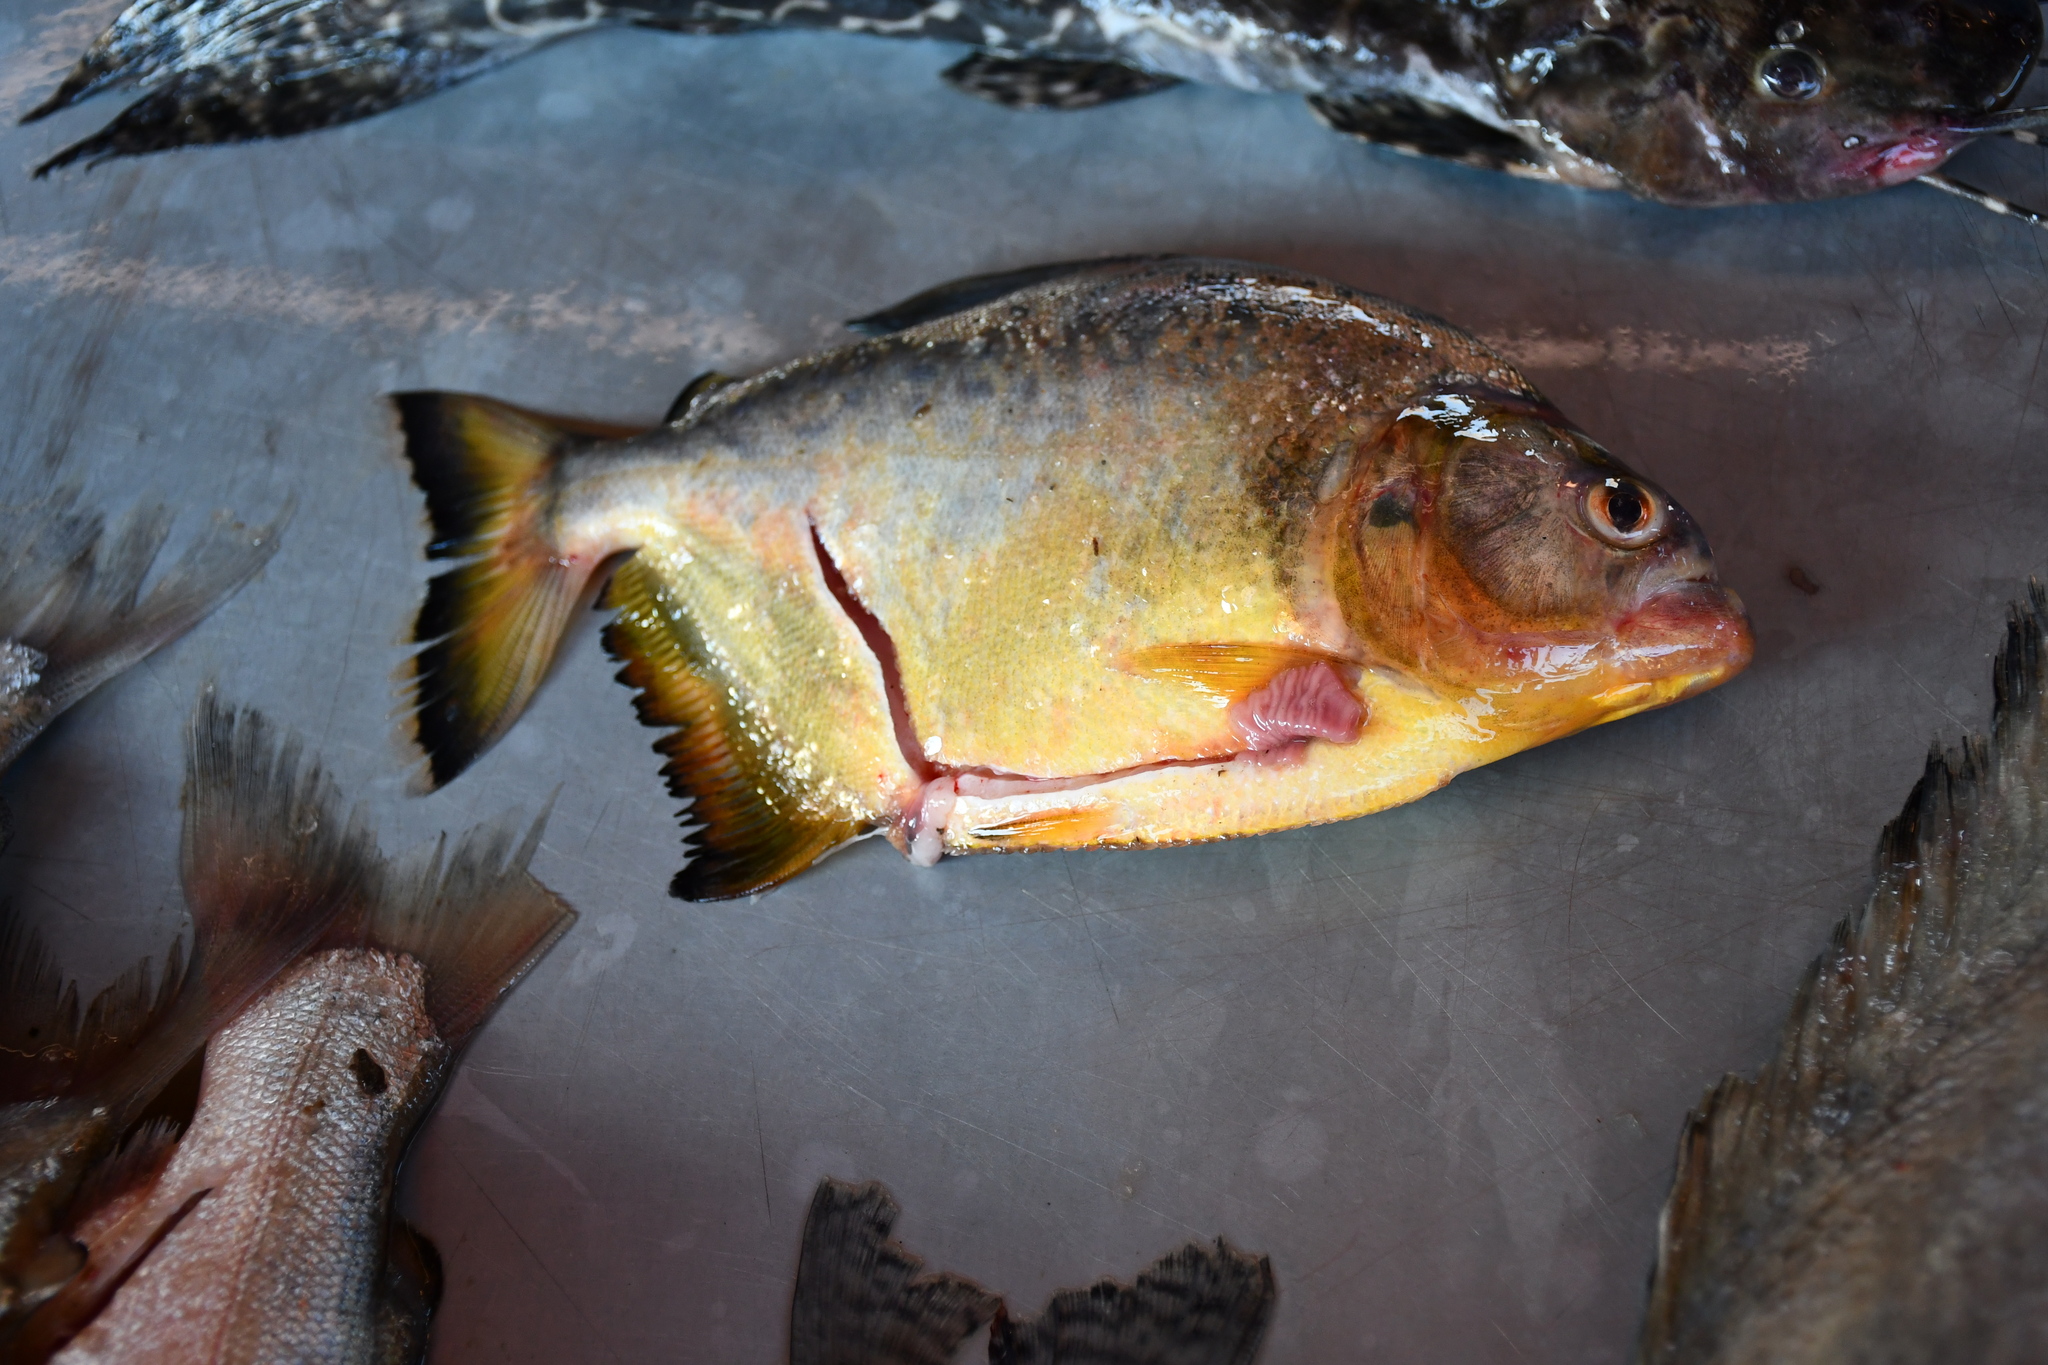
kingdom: Animalia
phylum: Chordata
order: Characiformes
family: Serrasalmidae
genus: Serrasalmus
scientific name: Serrasalmus maculatus
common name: Speckled piranha
